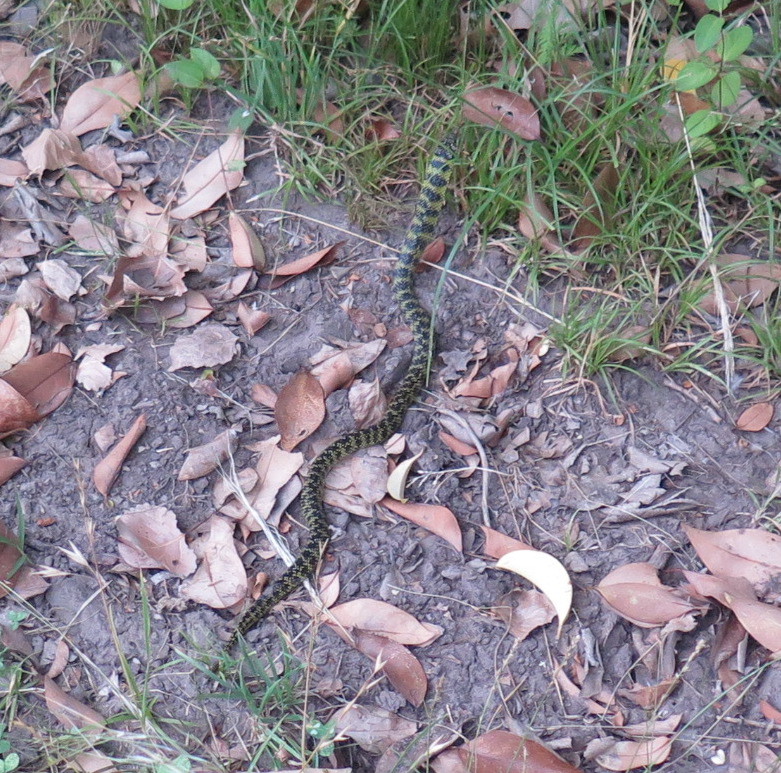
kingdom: Animalia
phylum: Chordata
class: Squamata
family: Colubridae
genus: Erythrolamprus
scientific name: Erythrolamprus poecilogyrus
